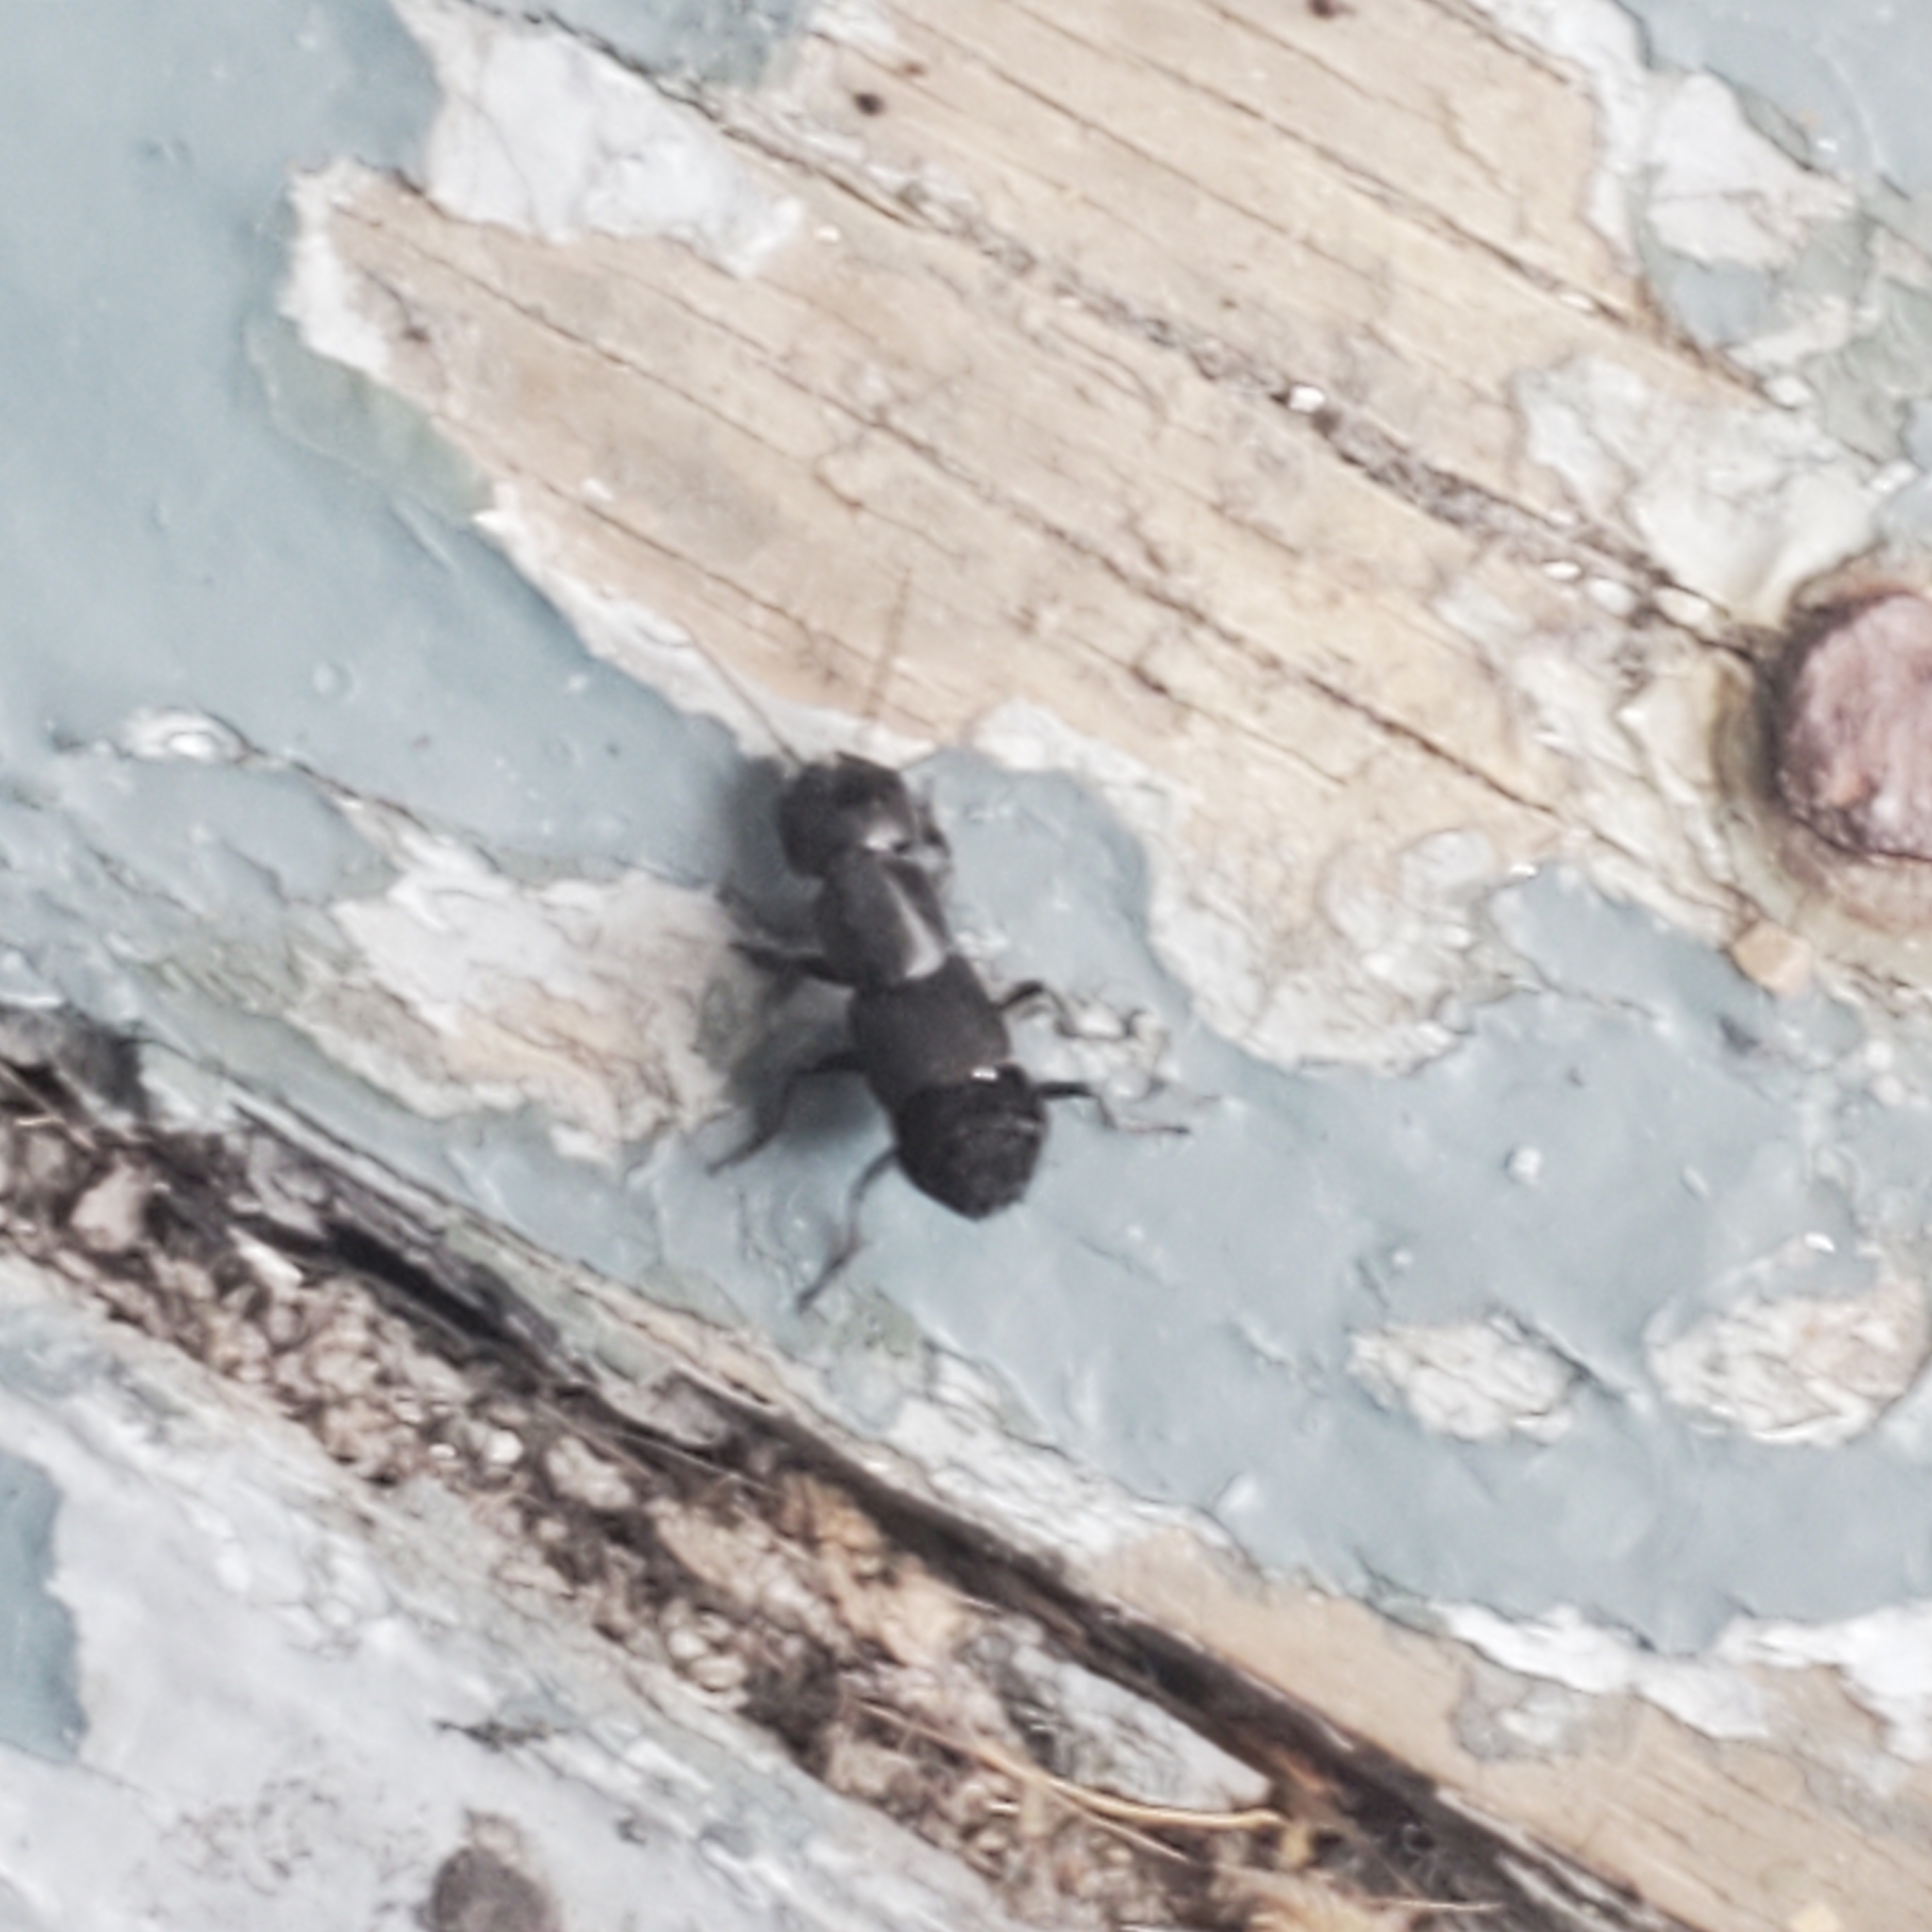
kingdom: Animalia
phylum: Arthropoda
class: Insecta
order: Coleoptera
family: Staphylinidae
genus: Ocypus
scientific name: Ocypus nitens
